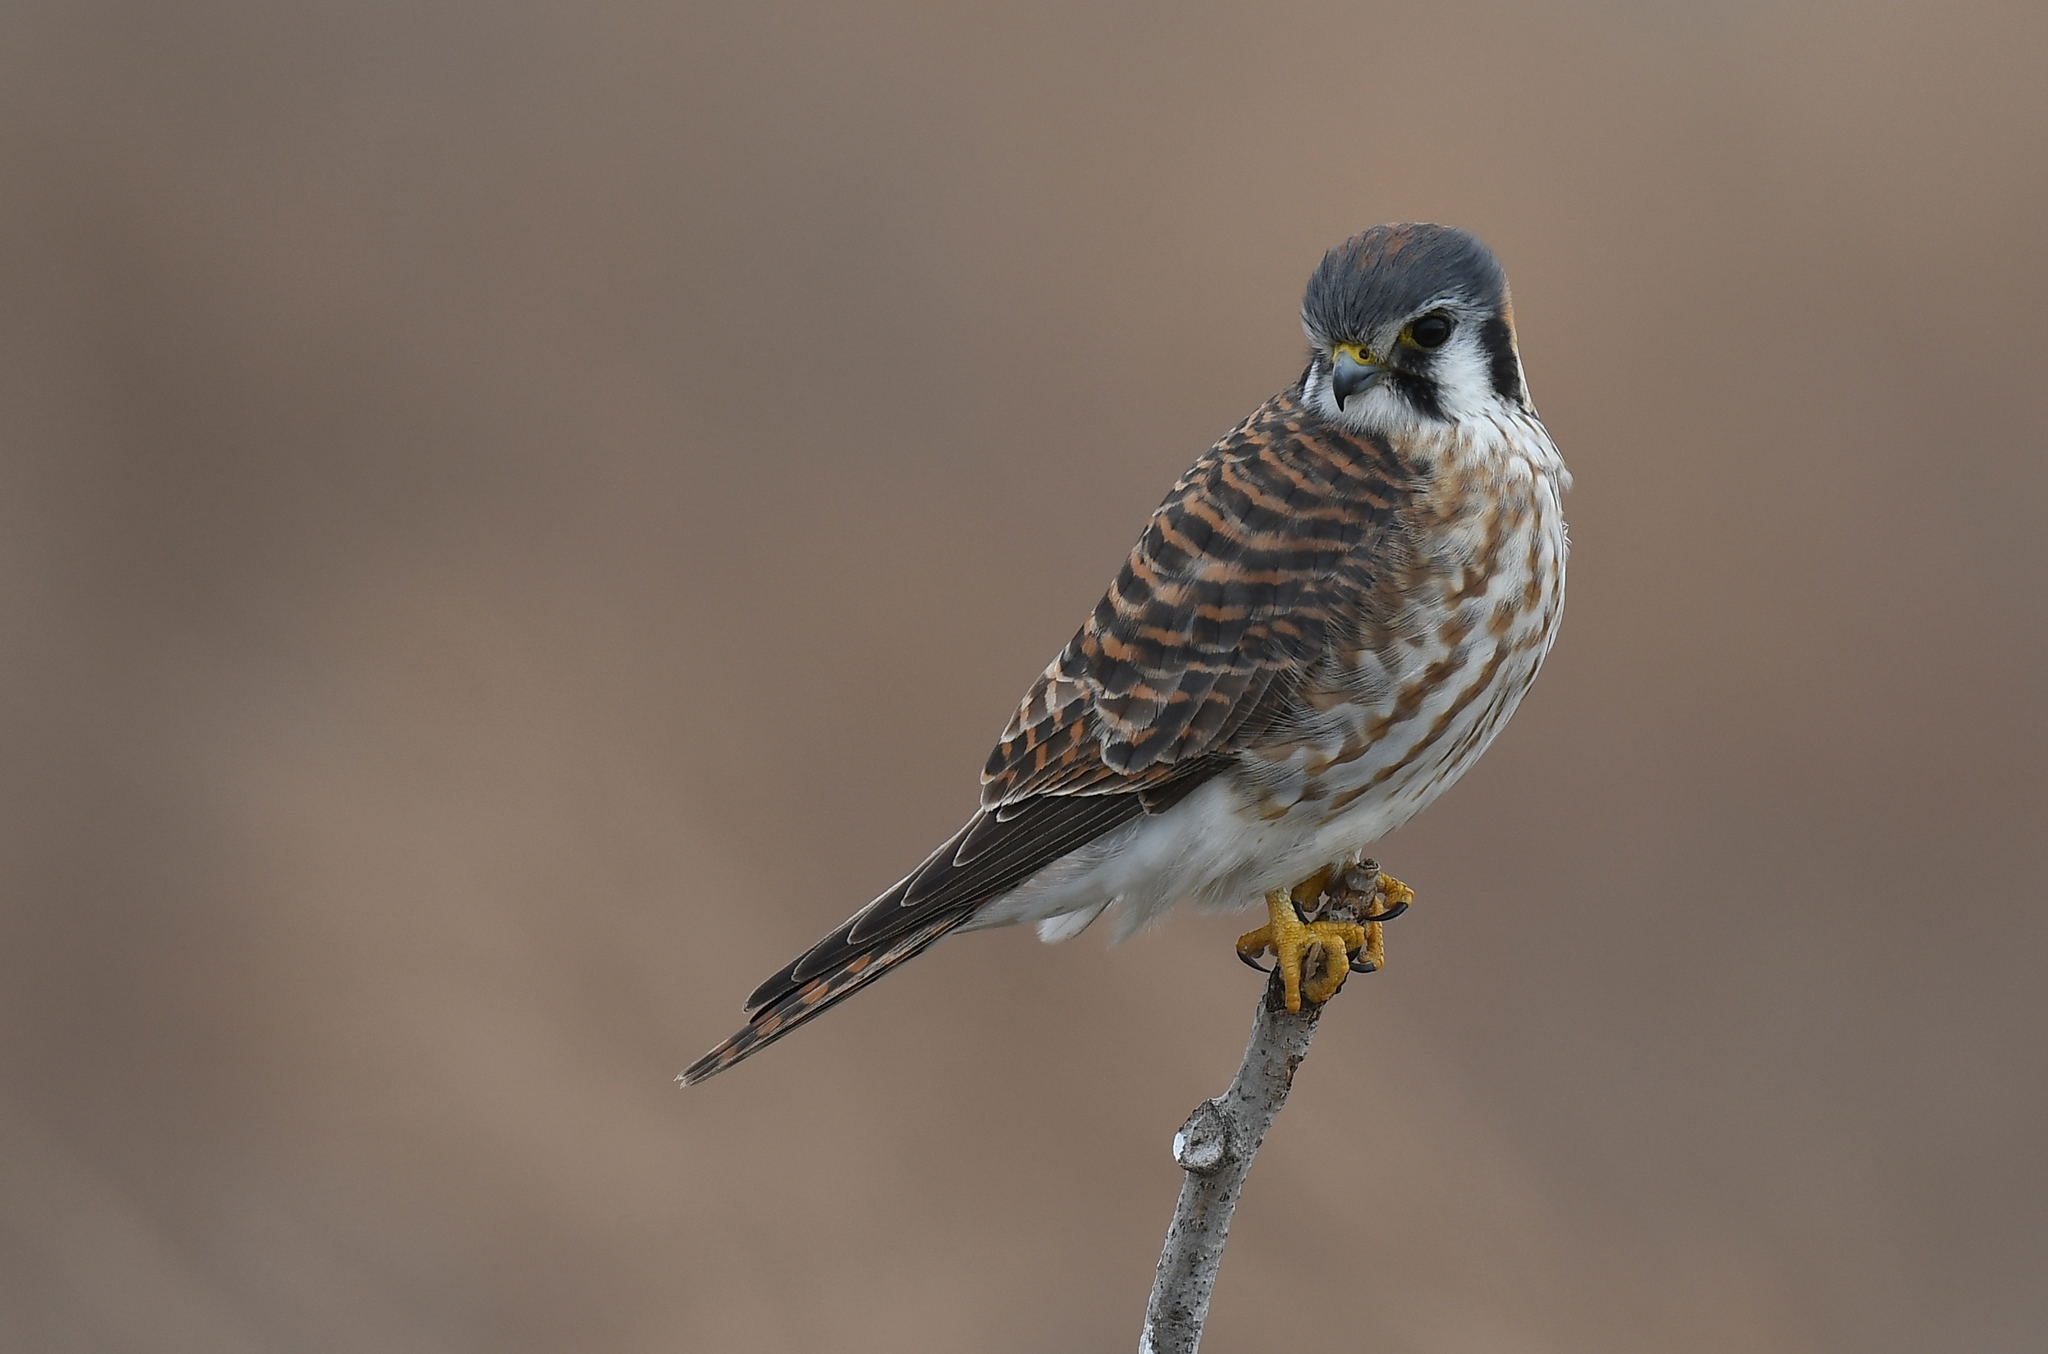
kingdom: Animalia
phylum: Chordata
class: Aves
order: Falconiformes
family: Falconidae
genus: Falco
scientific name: Falco sparverius
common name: American kestrel
